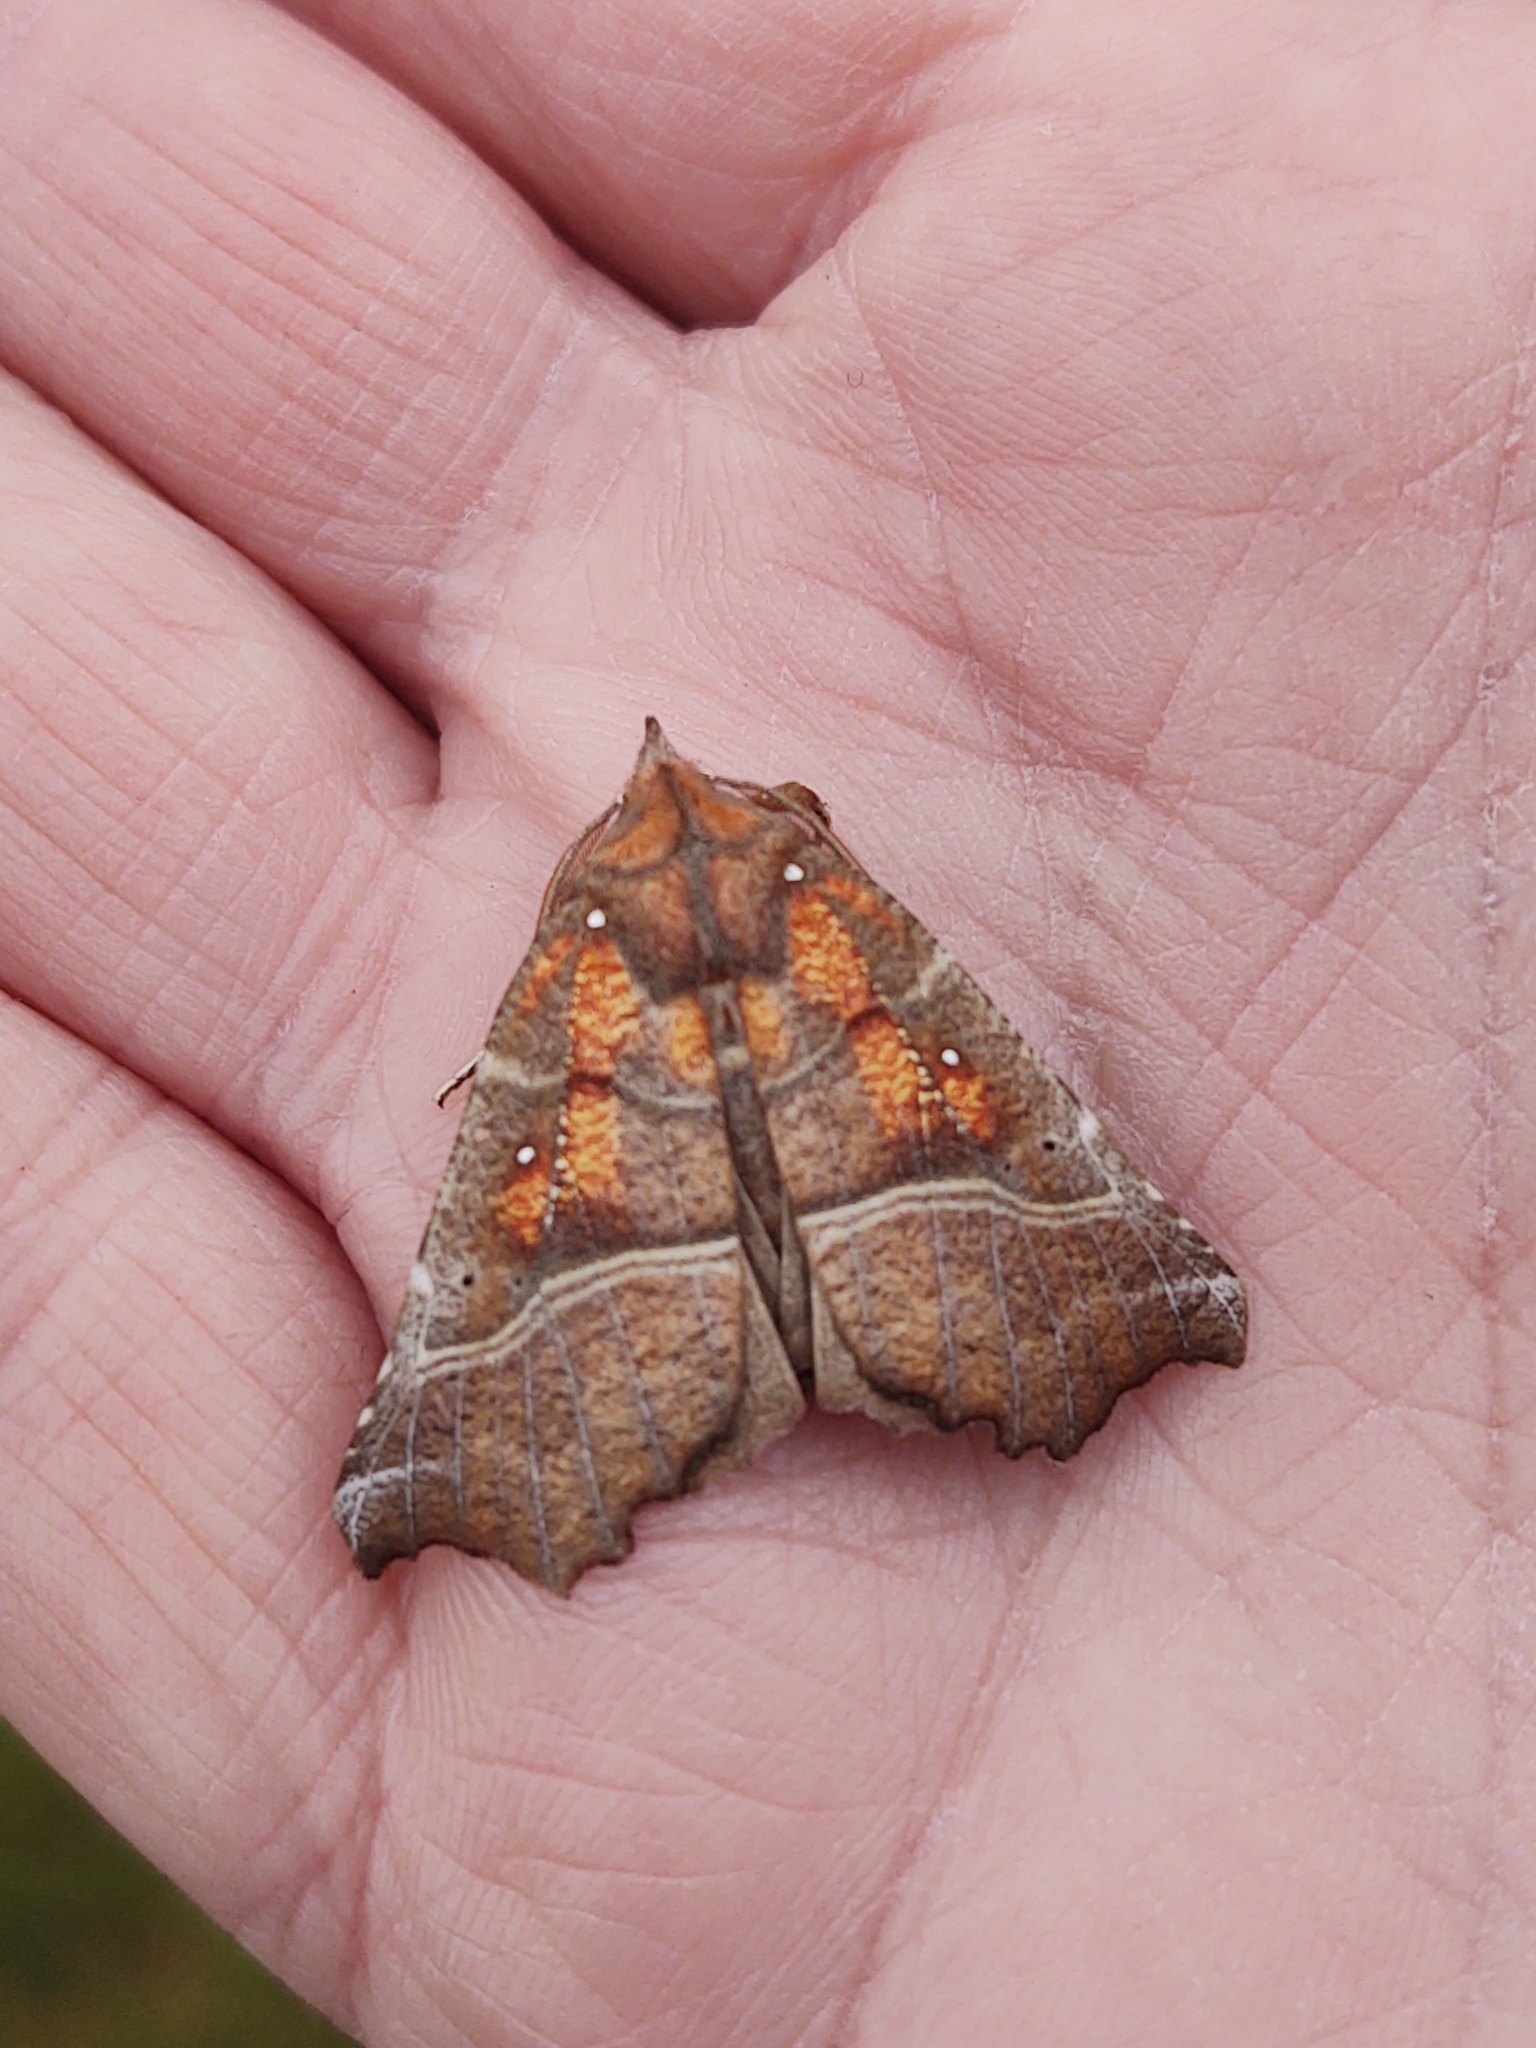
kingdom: Animalia
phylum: Arthropoda
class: Insecta
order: Lepidoptera
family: Erebidae
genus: Scoliopteryx
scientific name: Scoliopteryx libatrix
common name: Herald
